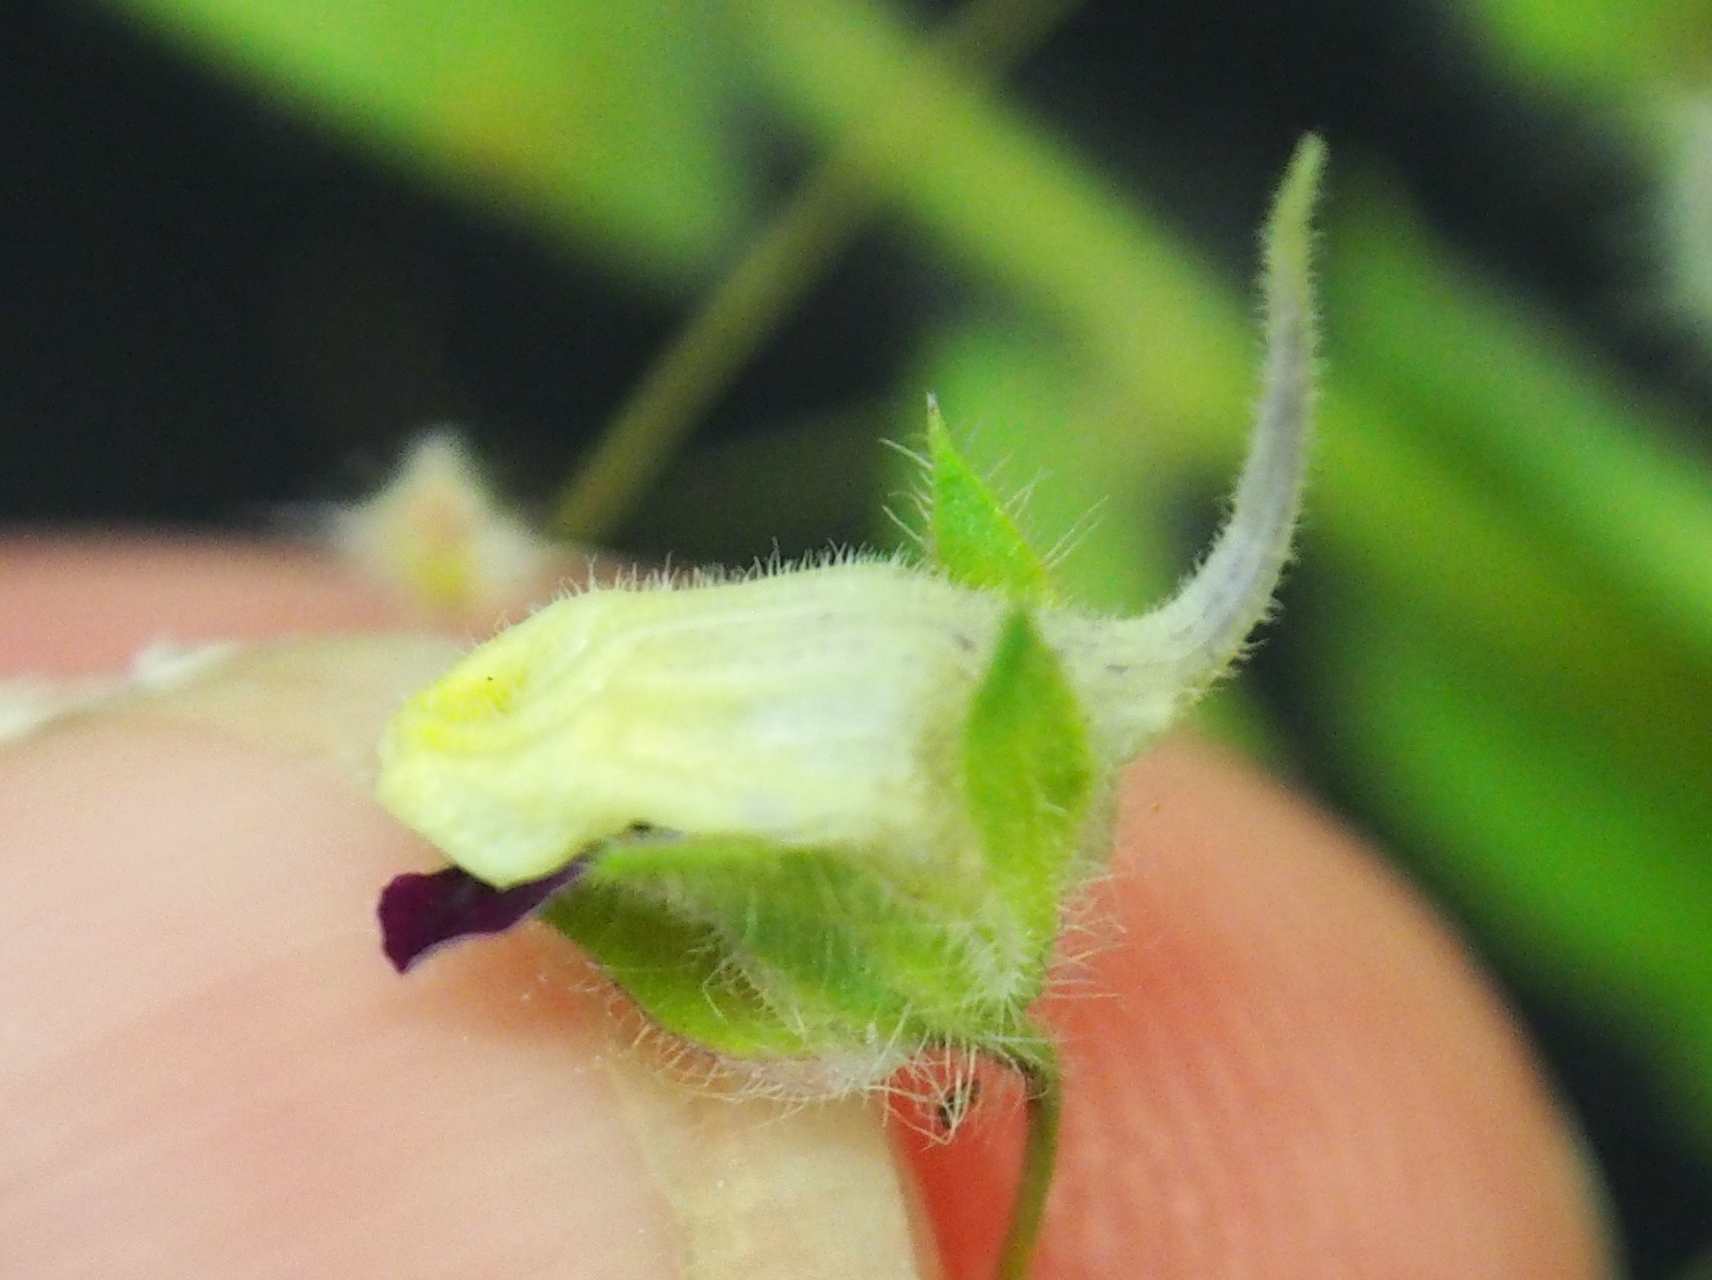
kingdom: Plantae
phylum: Tracheophyta
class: Magnoliopsida
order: Lamiales
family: Plantaginaceae
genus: Kickxia
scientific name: Kickxia elatine
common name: Sharp-leaved fluellen
